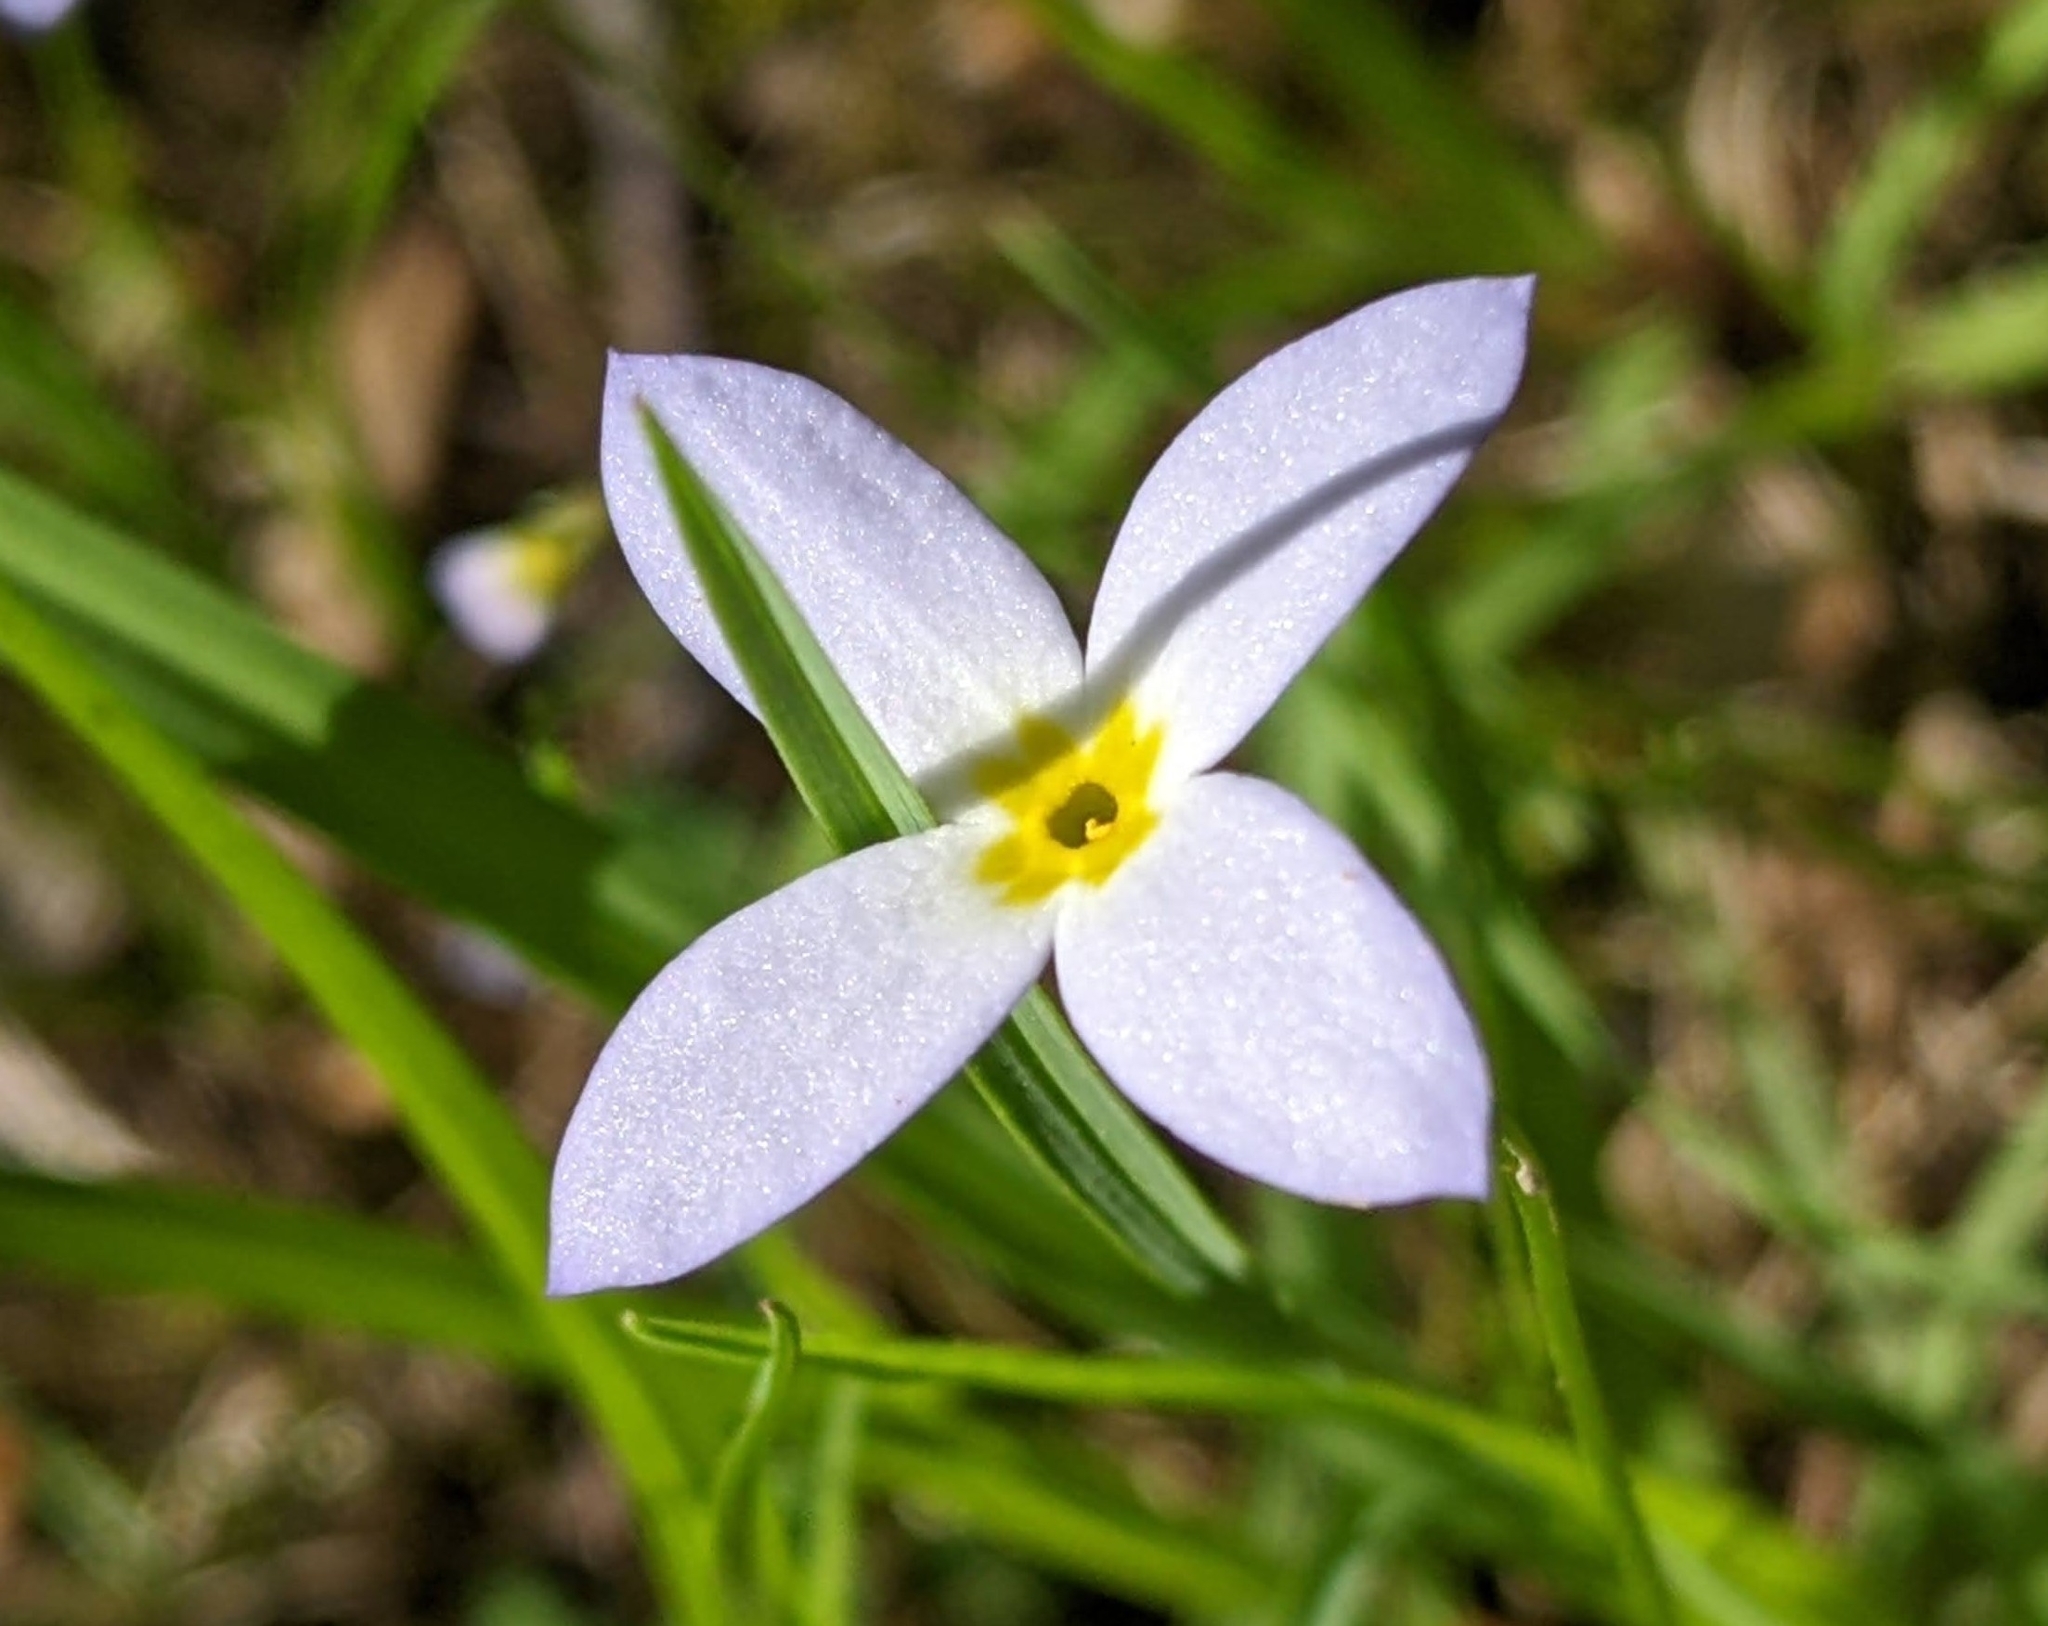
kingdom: Plantae
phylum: Tracheophyta
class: Magnoliopsida
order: Gentianales
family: Rubiaceae
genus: Houstonia
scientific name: Houstonia caerulea
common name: Bluets
